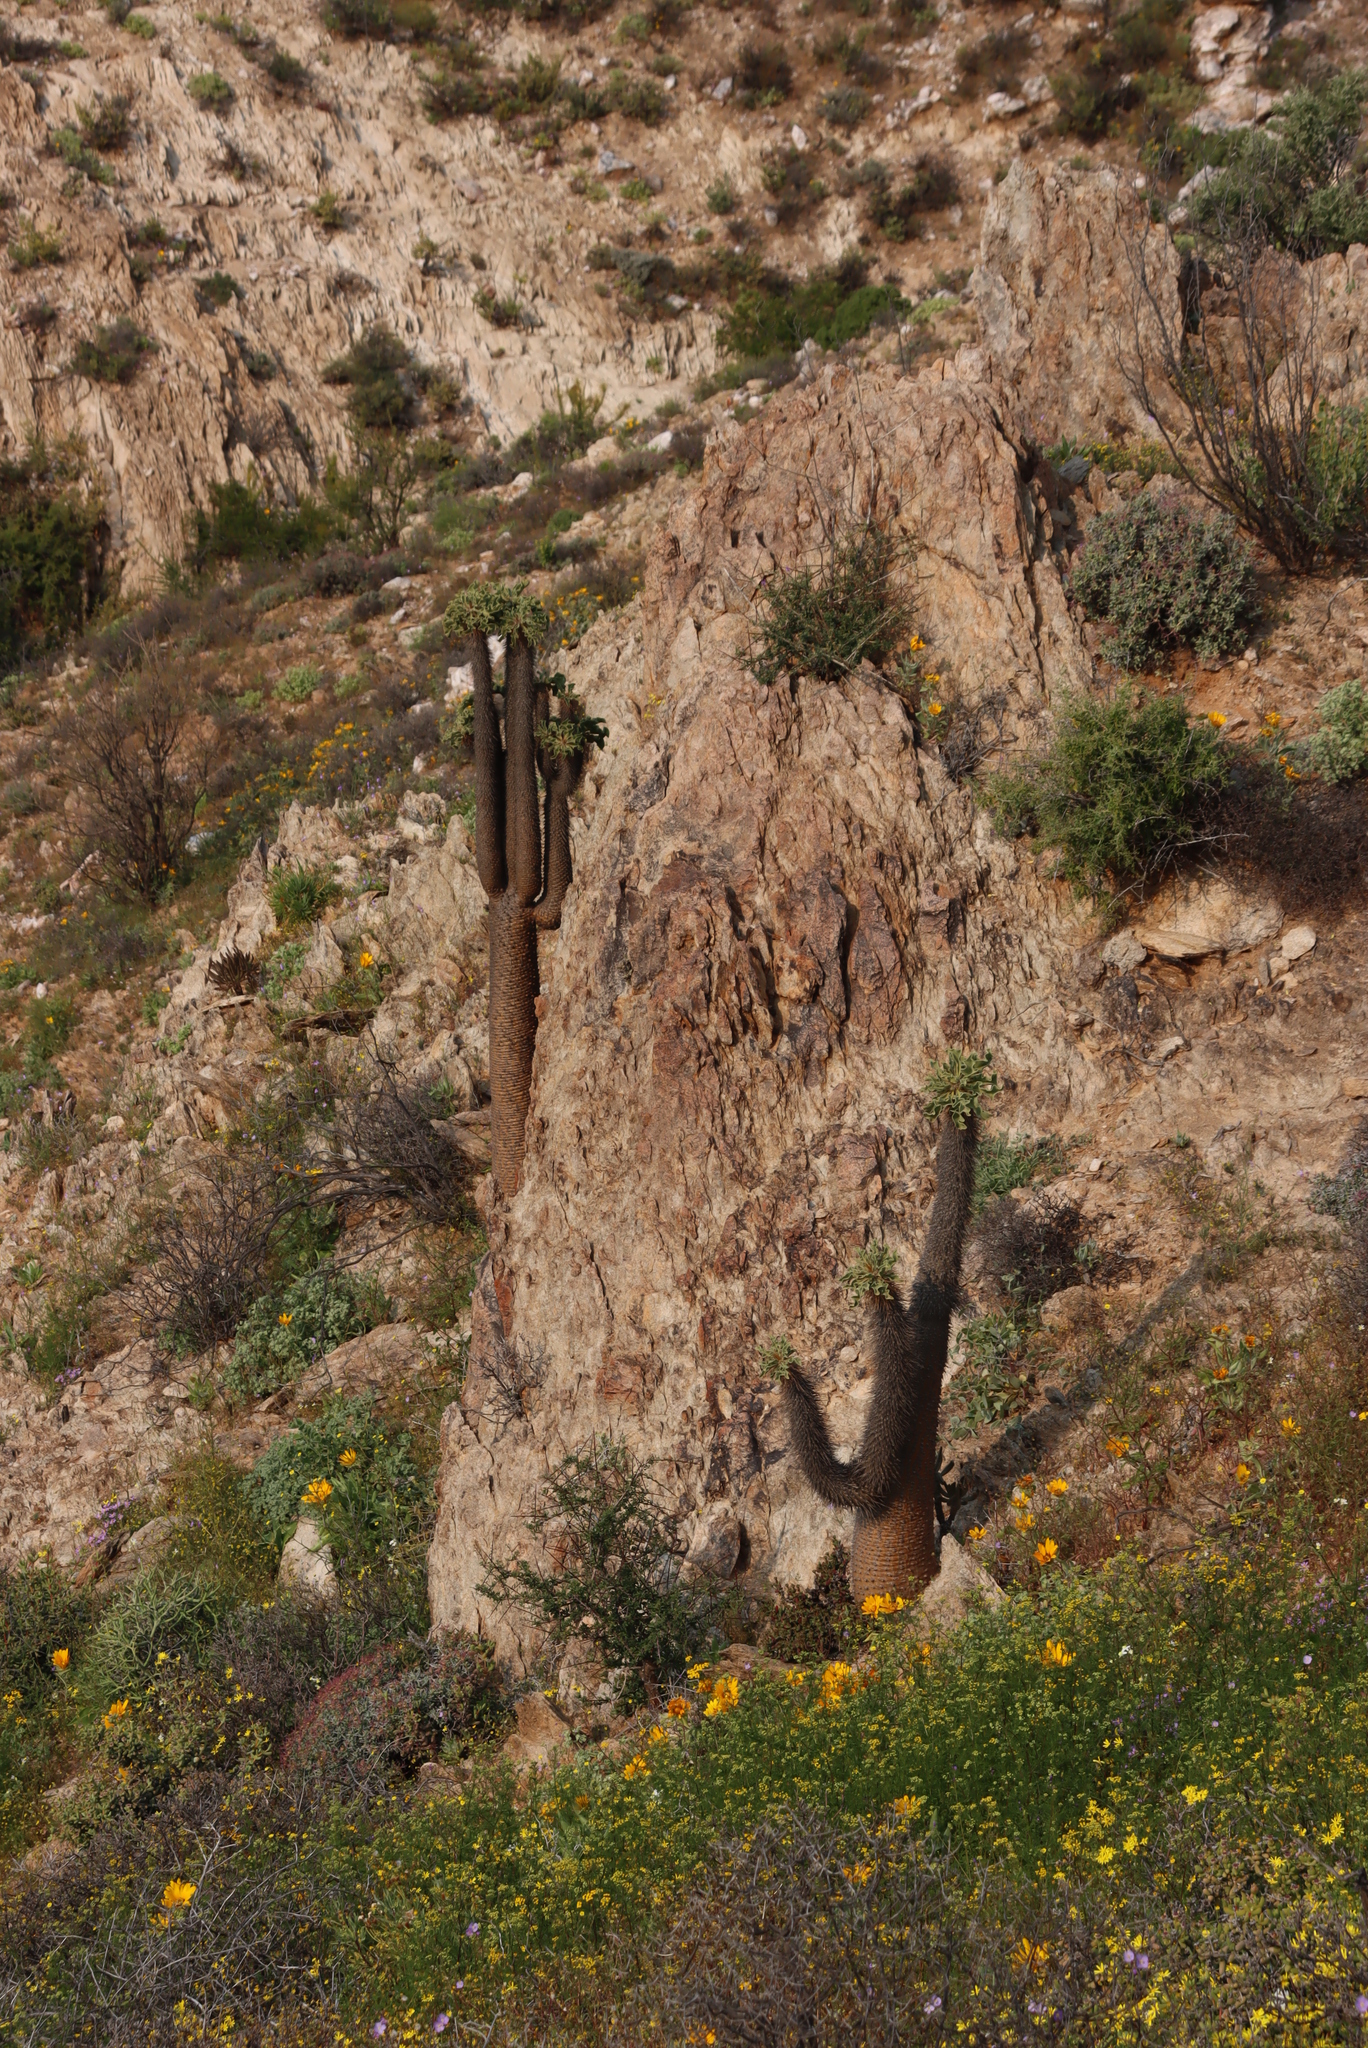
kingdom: Plantae
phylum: Tracheophyta
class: Magnoliopsida
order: Gentianales
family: Apocynaceae
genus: Pachypodium
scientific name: Pachypodium namaquanum
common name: Elephant's trunk
